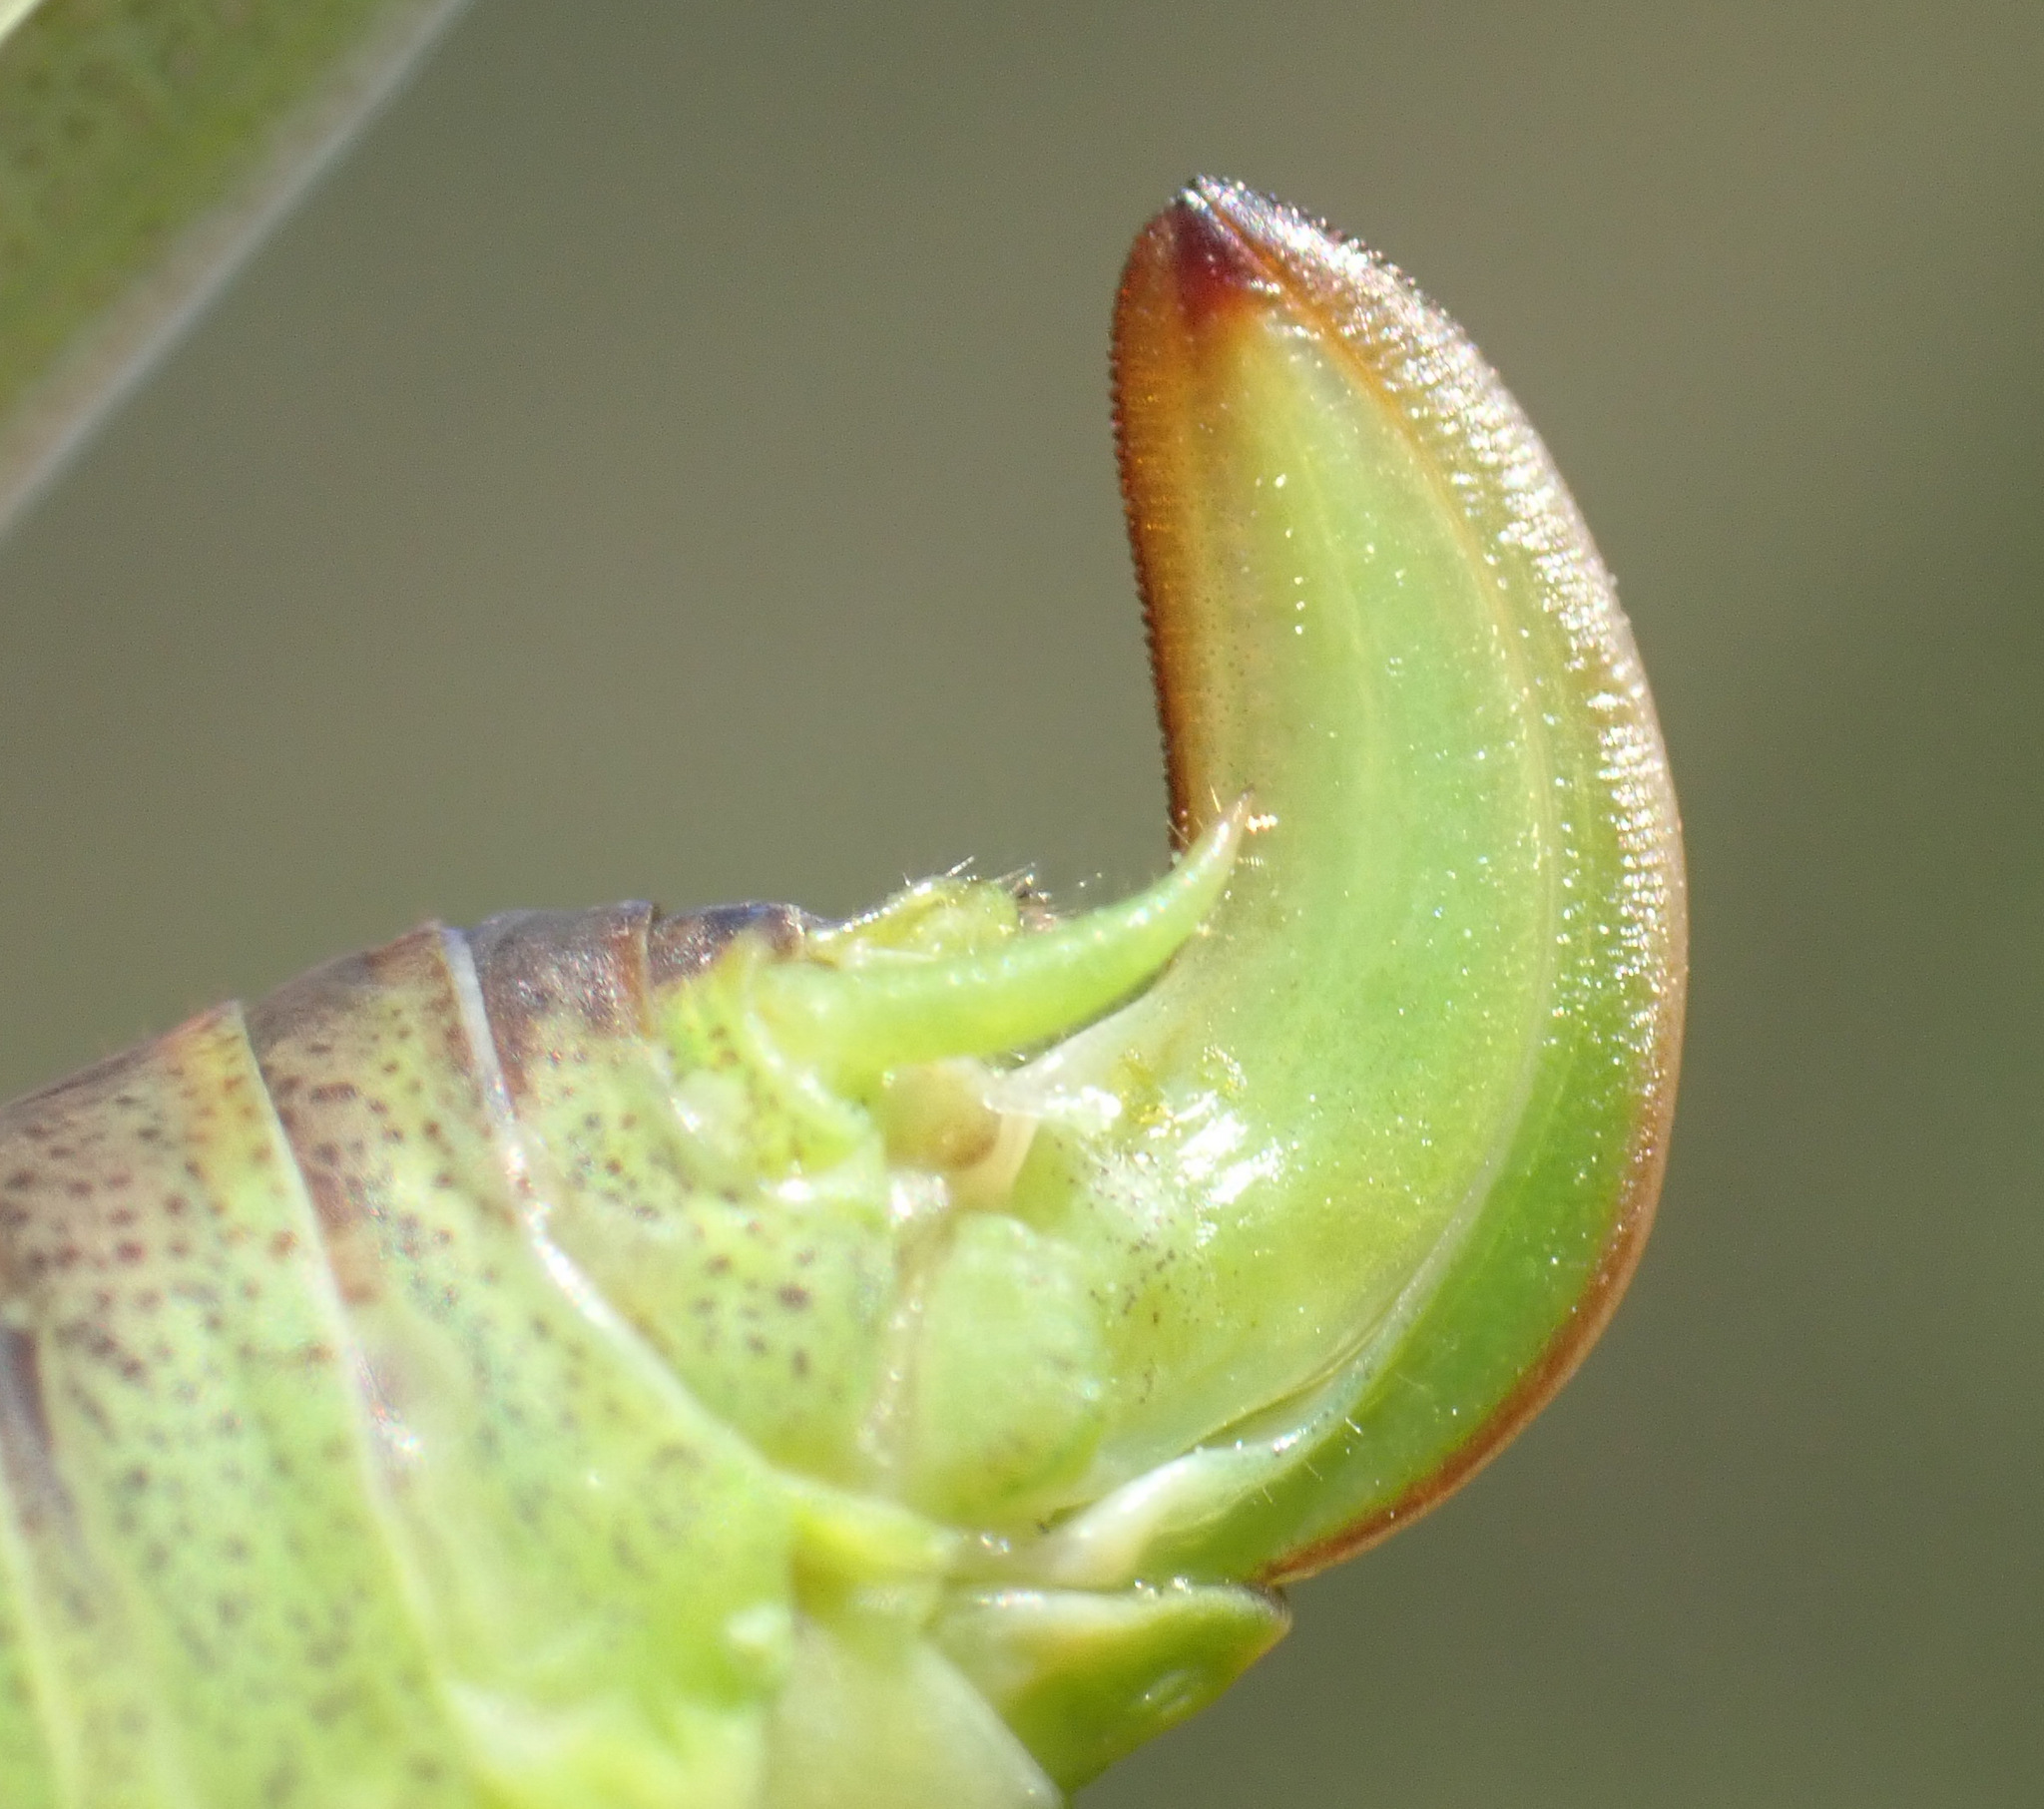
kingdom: Animalia
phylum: Arthropoda
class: Insecta
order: Orthoptera
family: Tettigoniidae
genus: Phaneroptera
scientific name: Phaneroptera falcata
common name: Sickle-bearing bush-cricket
